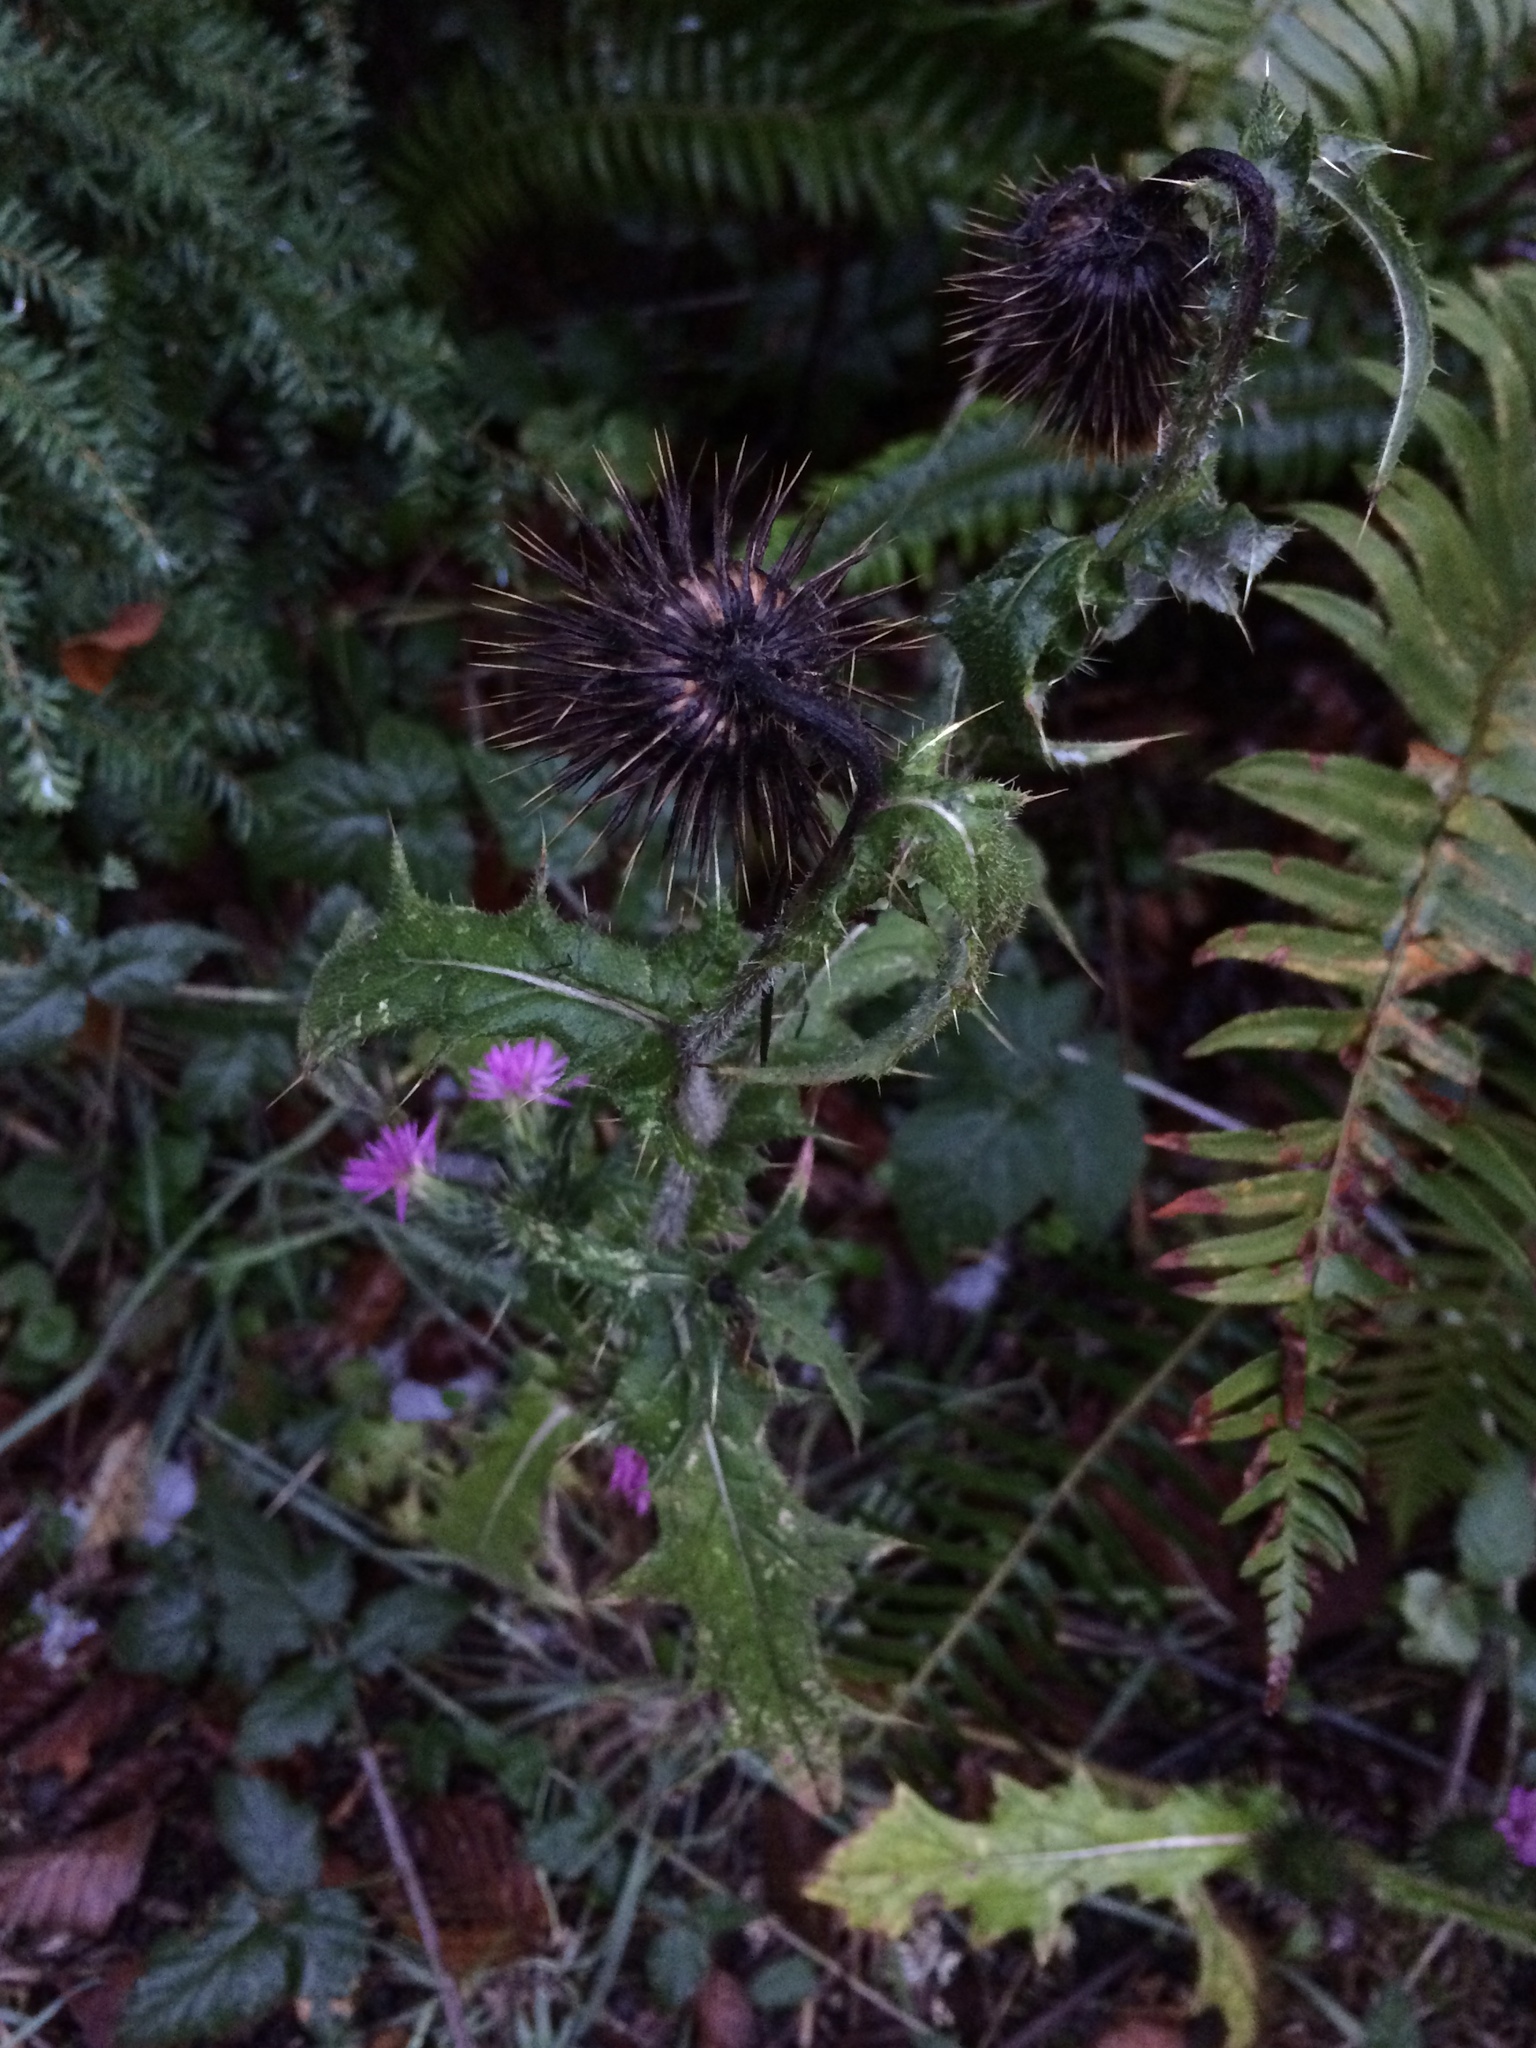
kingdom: Plantae
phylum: Tracheophyta
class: Magnoliopsida
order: Asterales
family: Asteraceae
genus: Cirsium
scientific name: Cirsium vulgare
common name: Bull thistle
